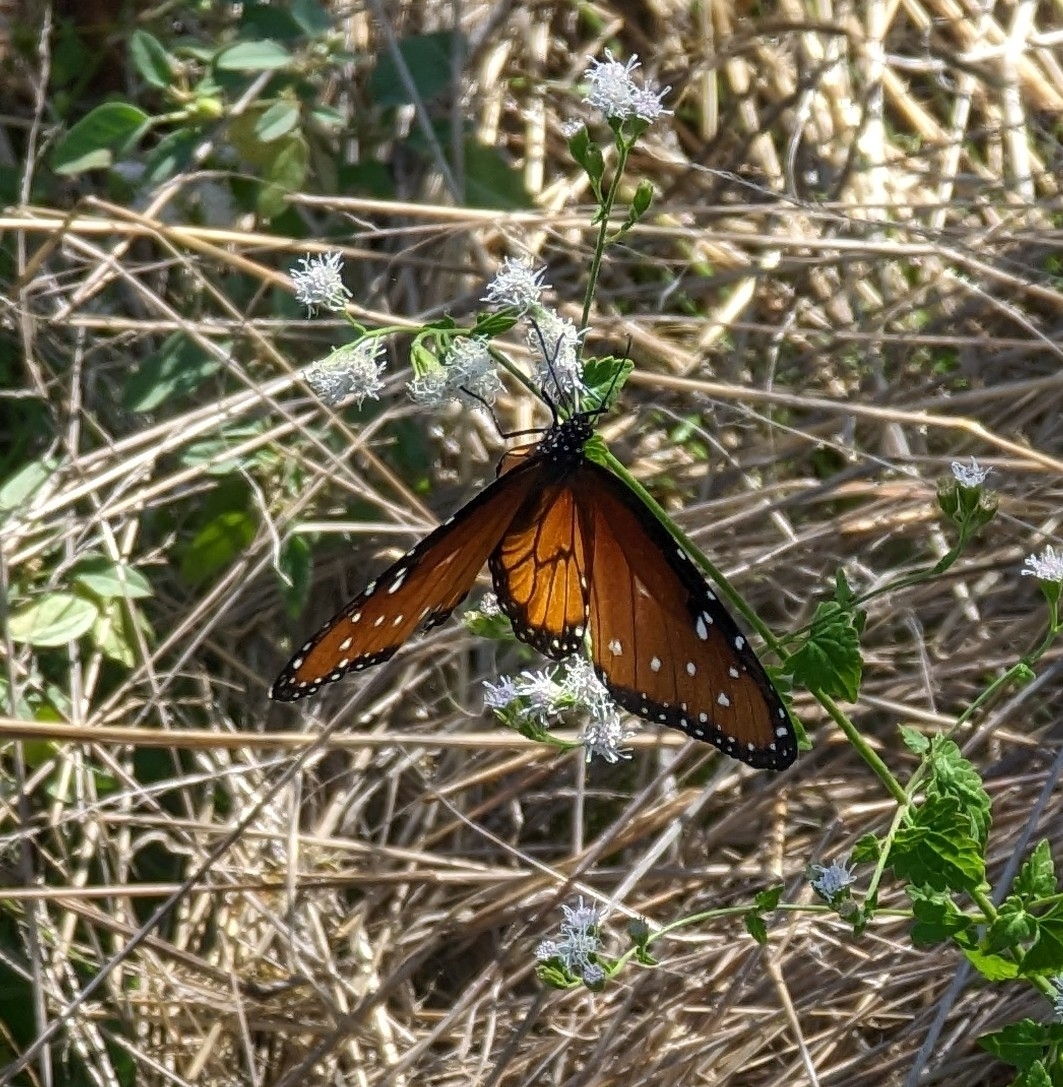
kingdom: Animalia
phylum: Arthropoda
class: Insecta
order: Lepidoptera
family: Nymphalidae
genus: Danaus
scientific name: Danaus gilippus
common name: Queen
